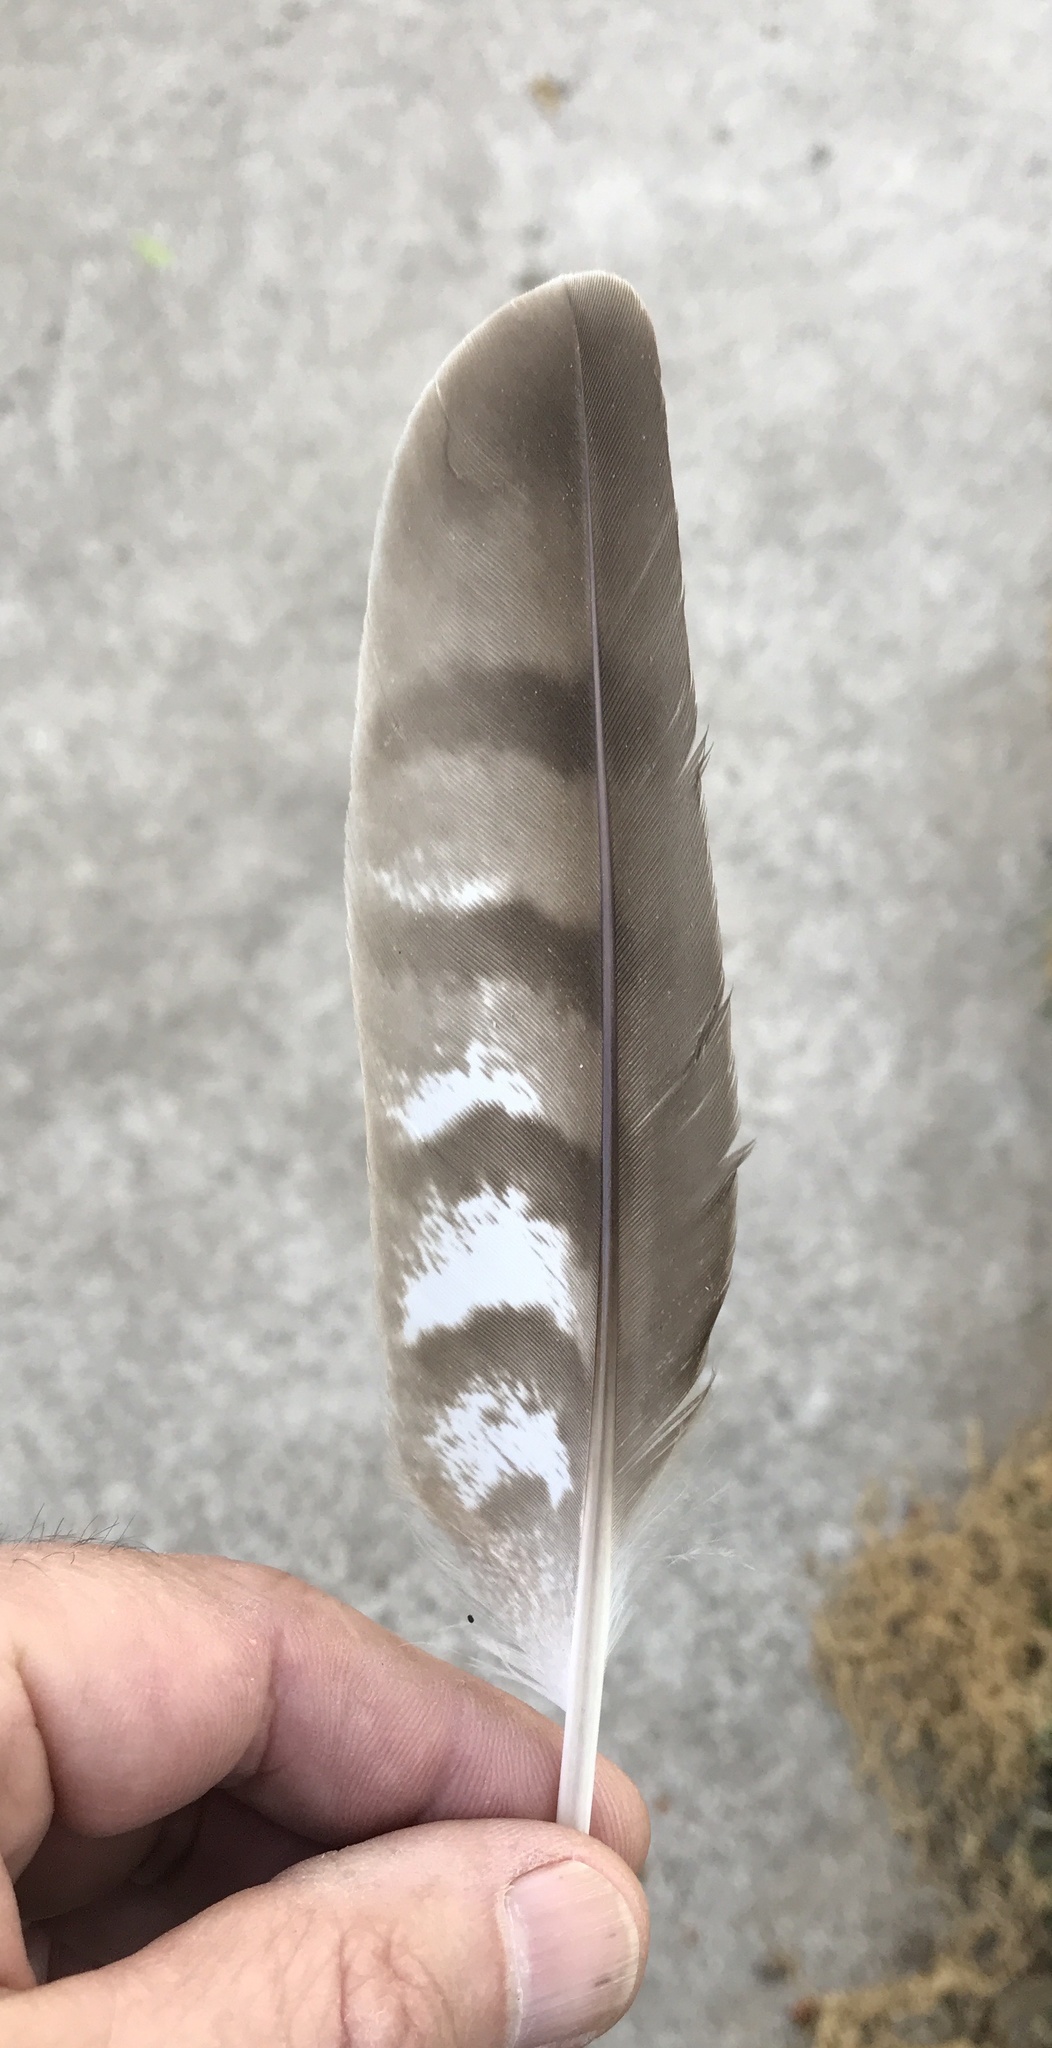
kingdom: Animalia
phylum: Chordata
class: Aves
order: Accipitriformes
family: Accipitridae
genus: Accipiter
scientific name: Accipiter cooperii
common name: Cooper's hawk
